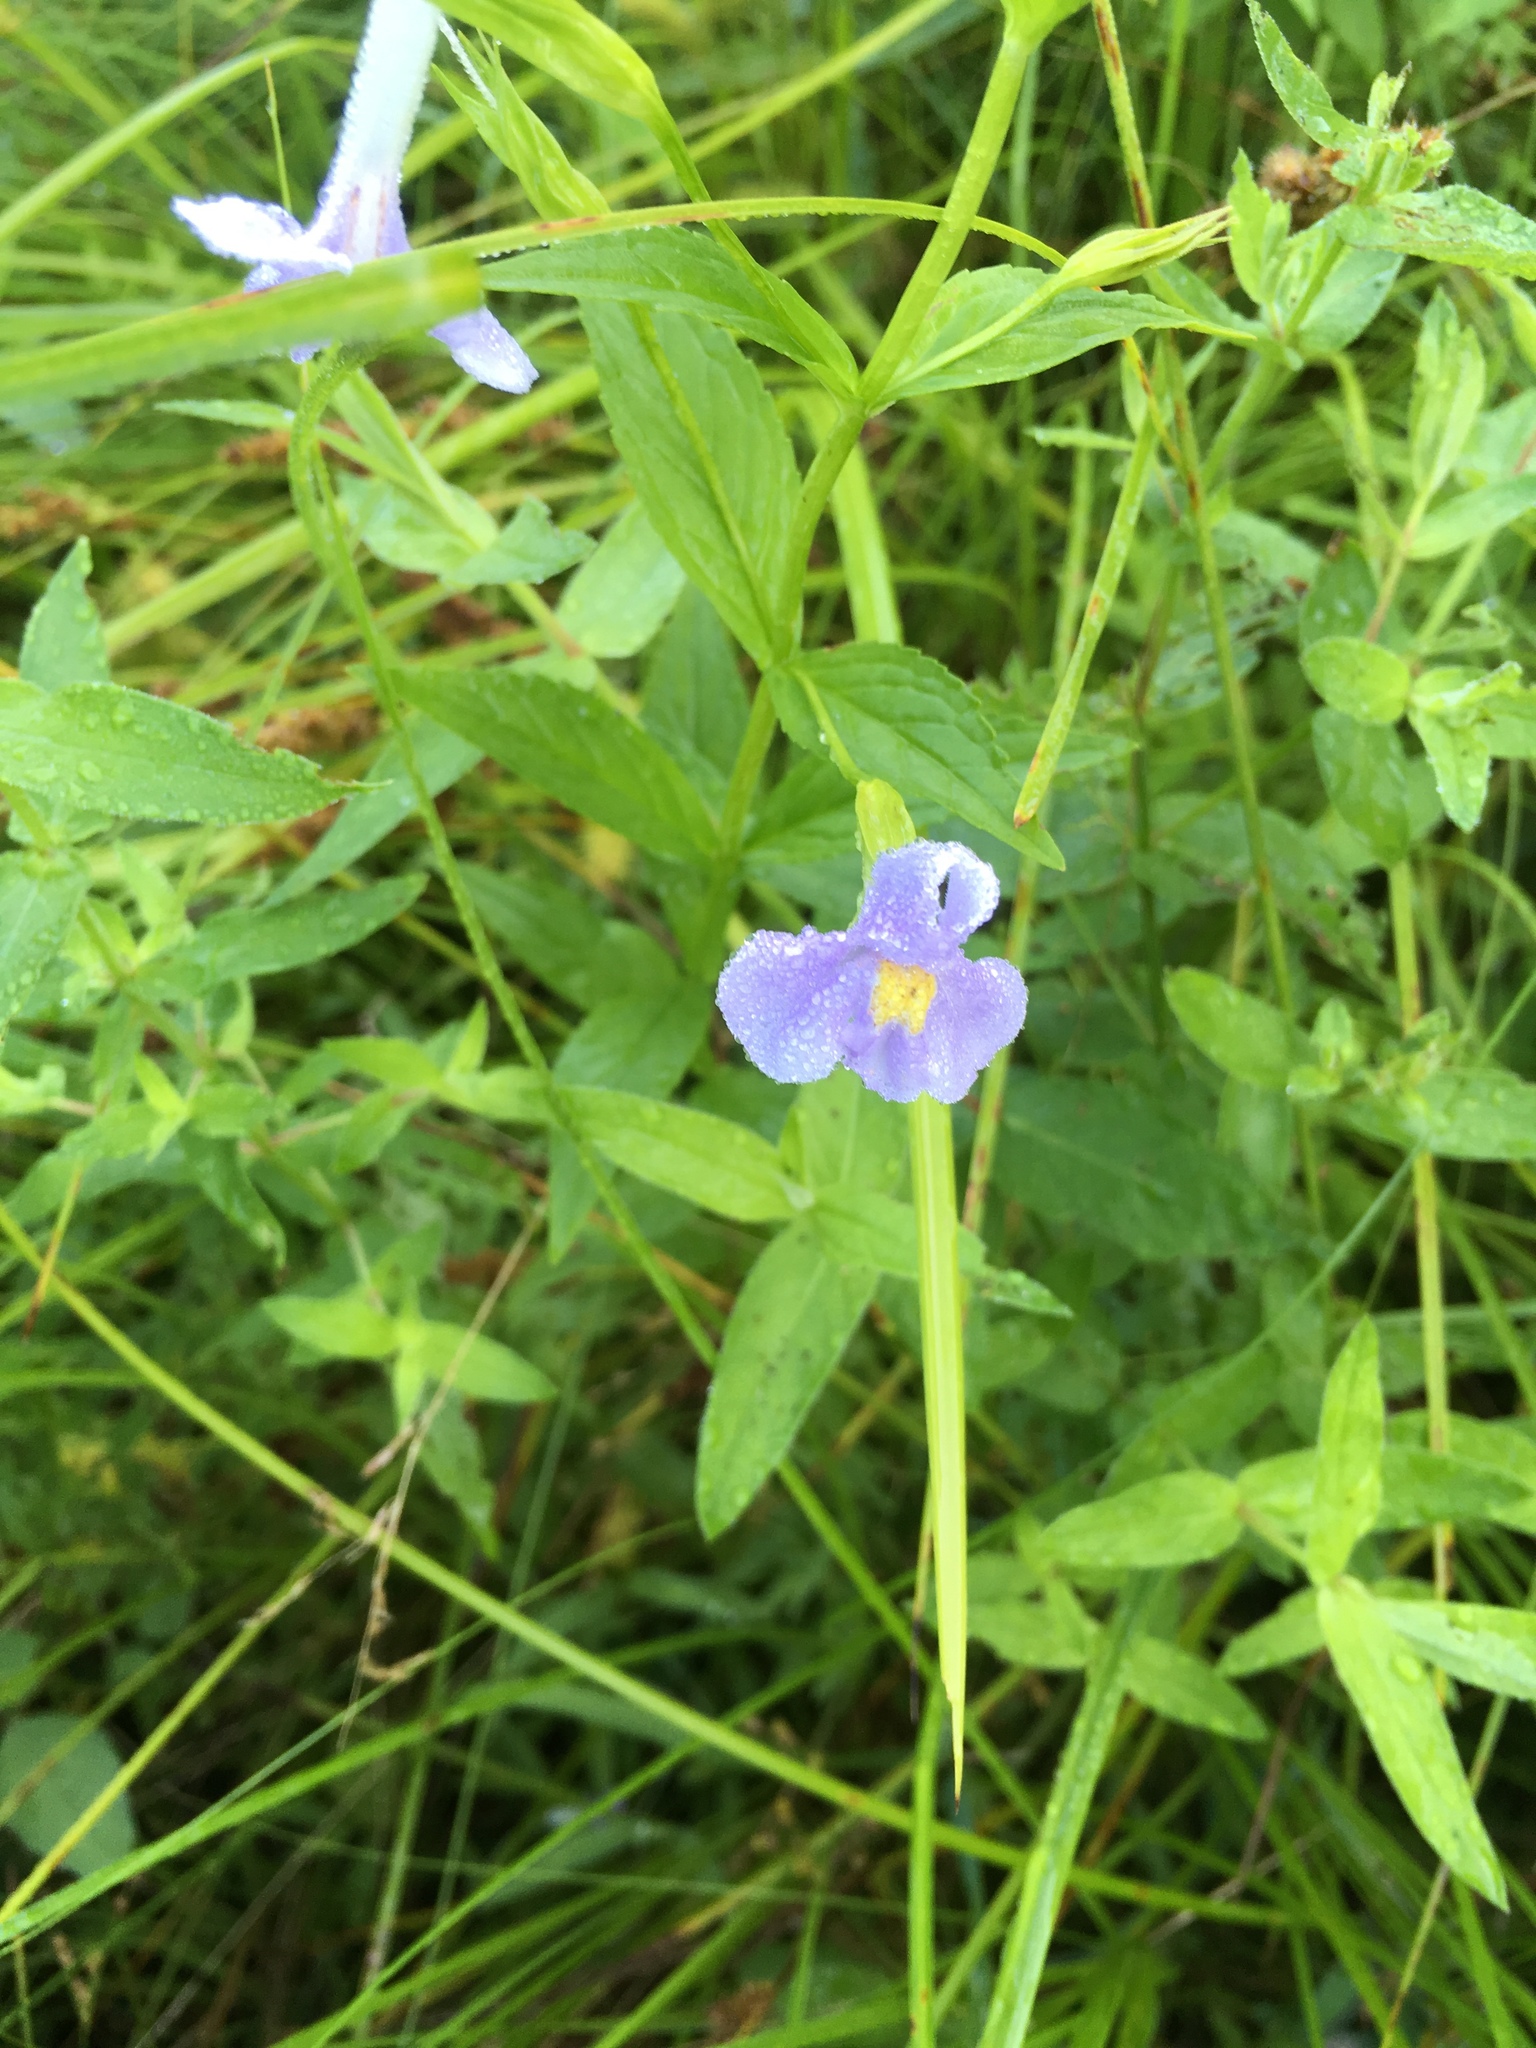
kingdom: Plantae
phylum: Tracheophyta
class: Magnoliopsida
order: Lamiales
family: Phrymaceae
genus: Mimulus
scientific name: Mimulus ringens
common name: Allegheny monkeyflower
